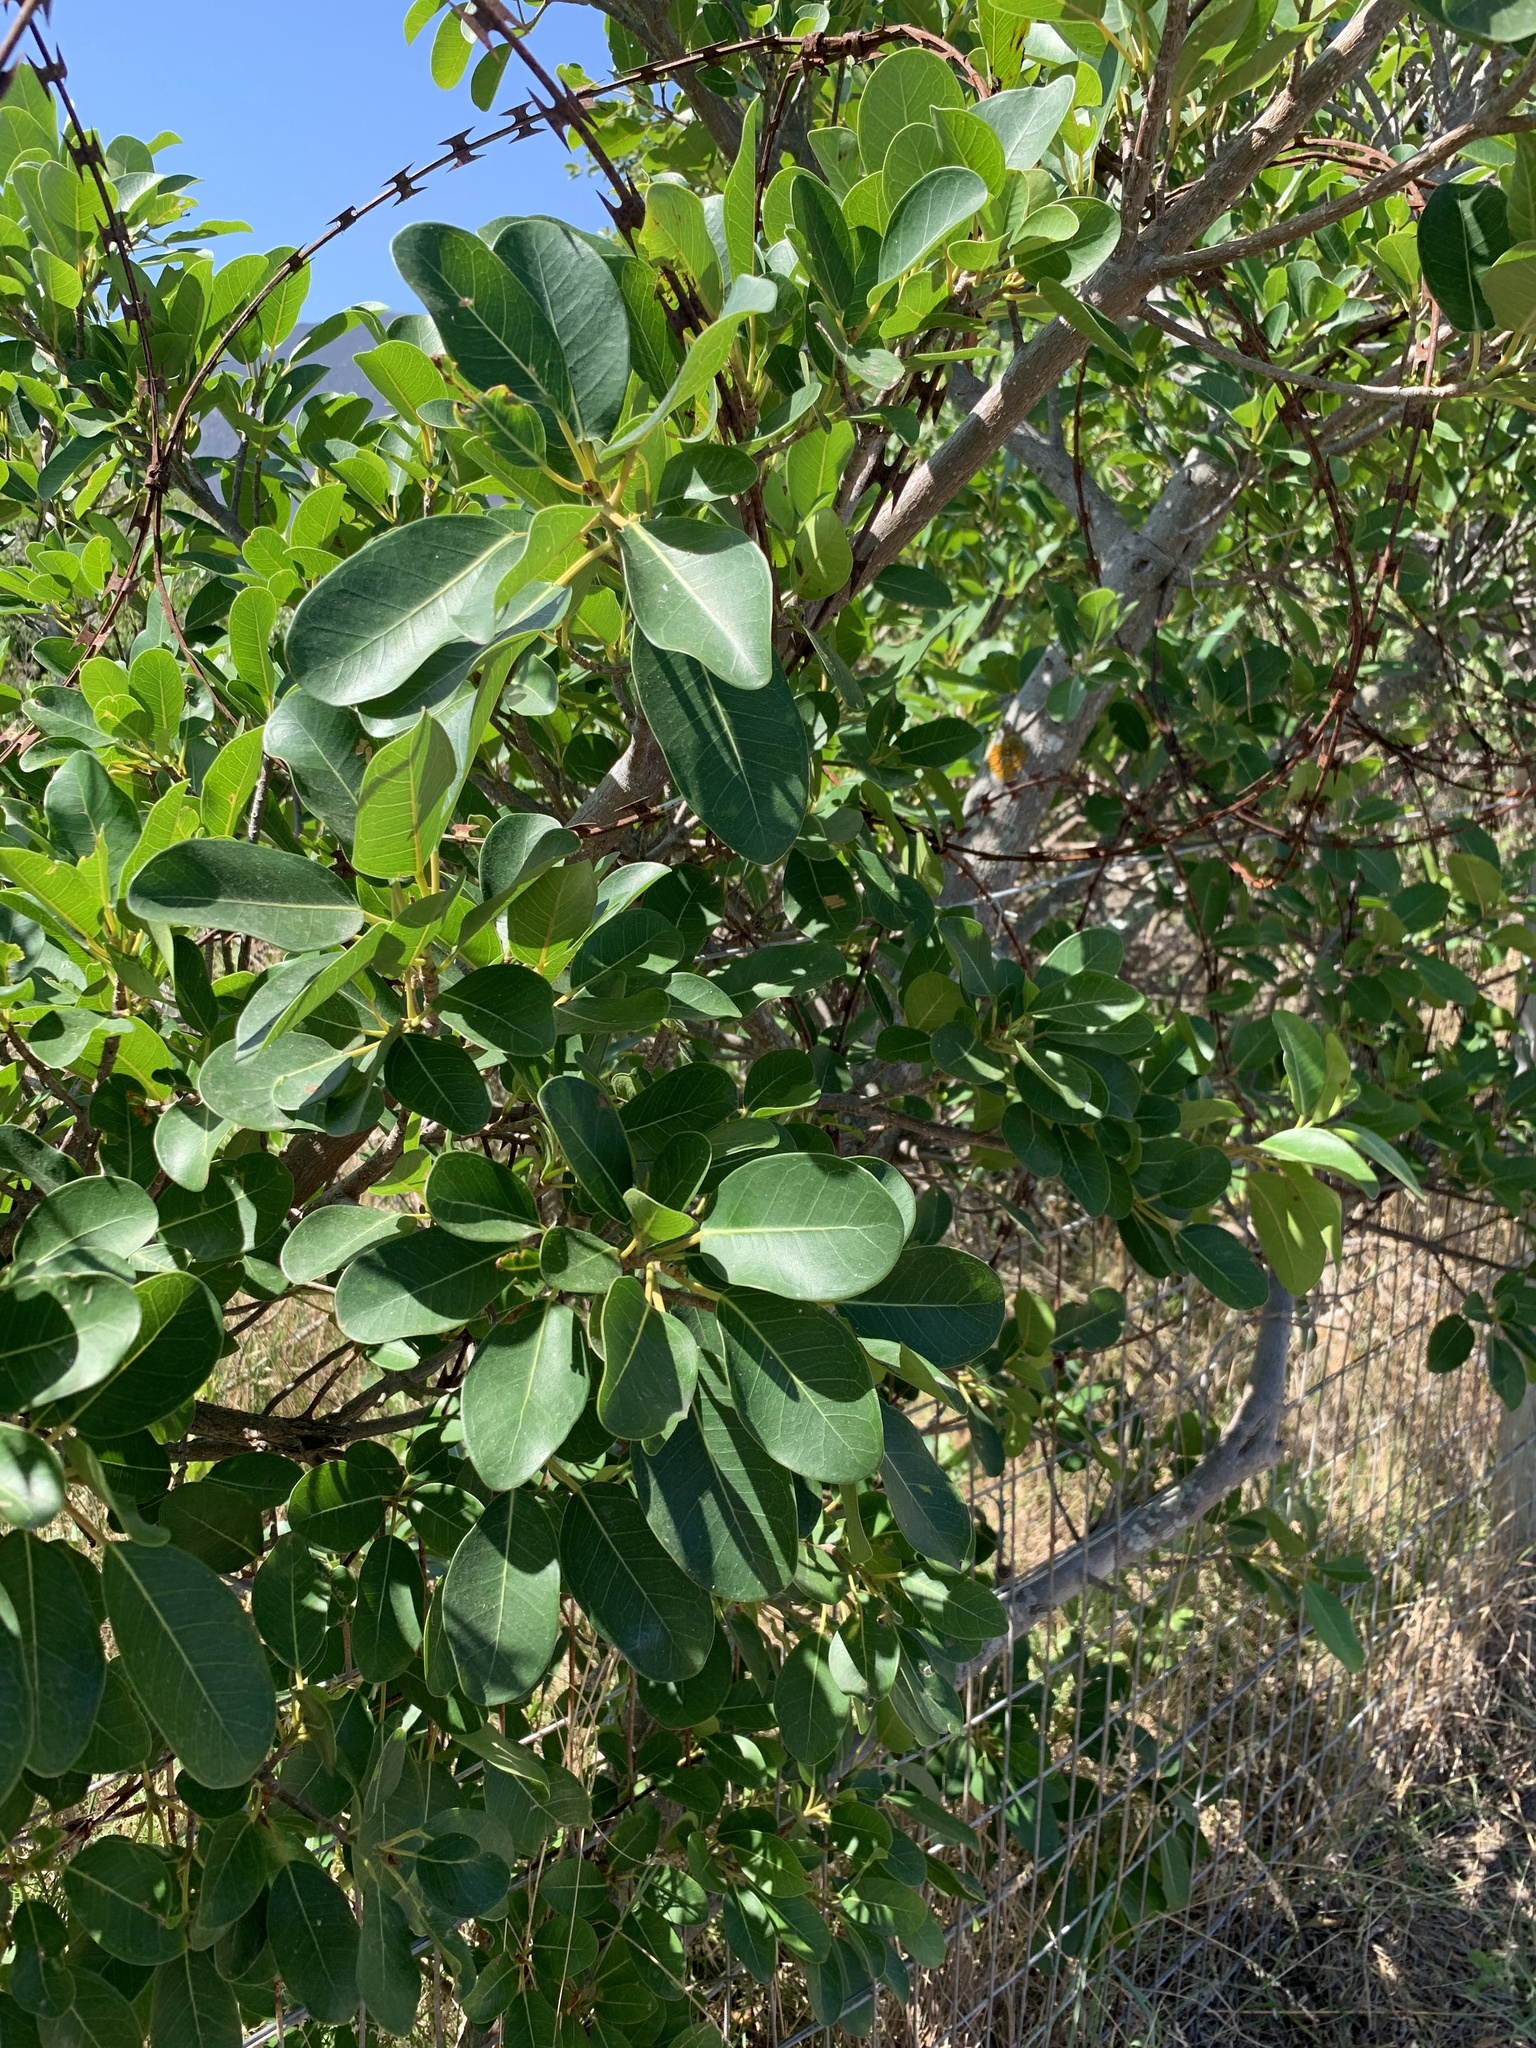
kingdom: Plantae
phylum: Tracheophyta
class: Magnoliopsida
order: Rosales
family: Moraceae
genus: Ficus
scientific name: Ficus thonningii
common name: Fig
